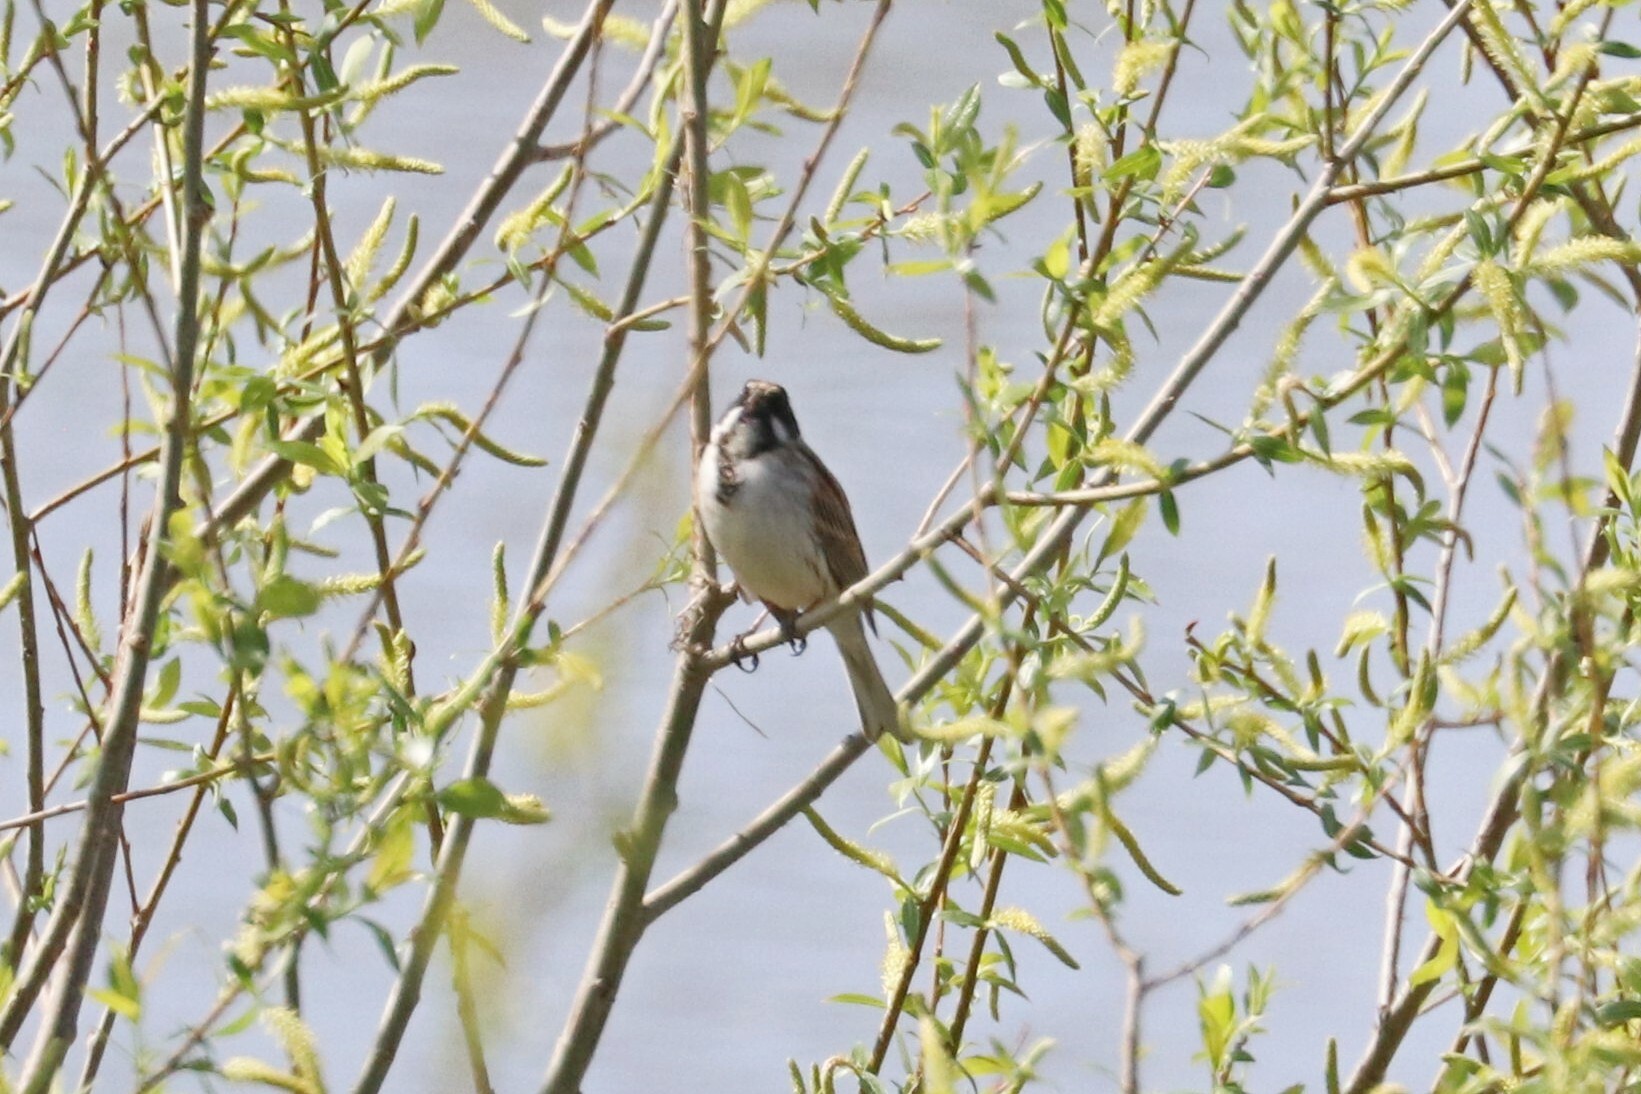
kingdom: Animalia
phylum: Chordata
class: Aves
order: Passeriformes
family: Emberizidae
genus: Emberiza
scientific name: Emberiza schoeniclus
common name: Reed bunting
